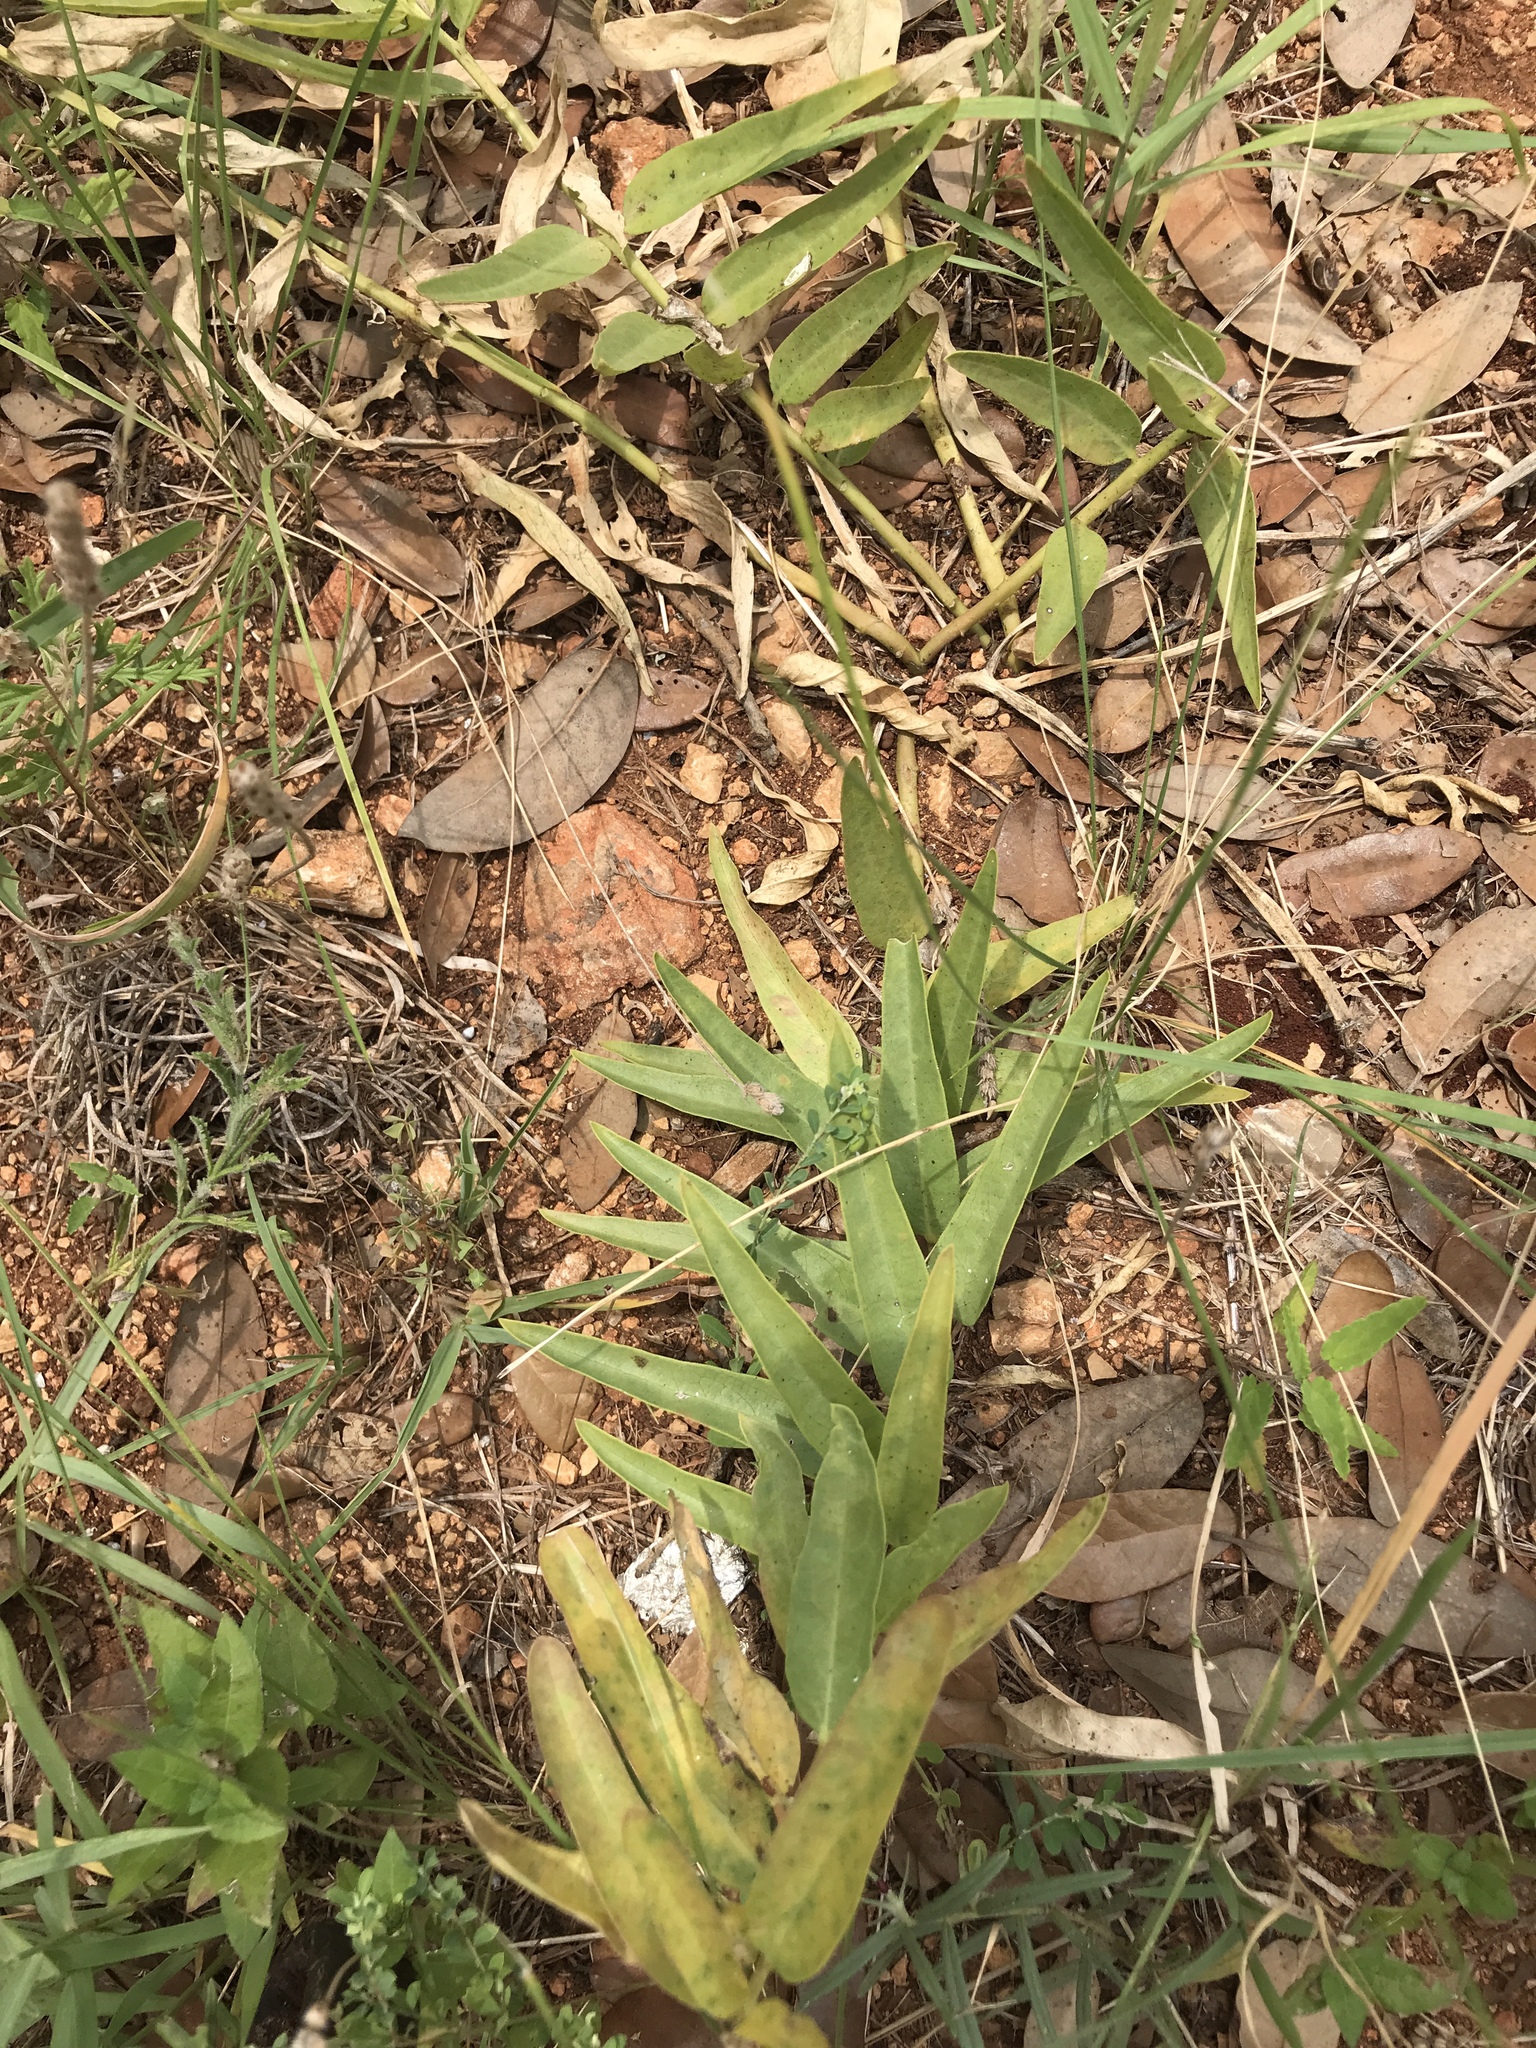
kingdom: Plantae
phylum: Tracheophyta
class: Magnoliopsida
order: Gentianales
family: Apocynaceae
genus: Asclepias
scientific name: Asclepias asperula
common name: Antelope horns
